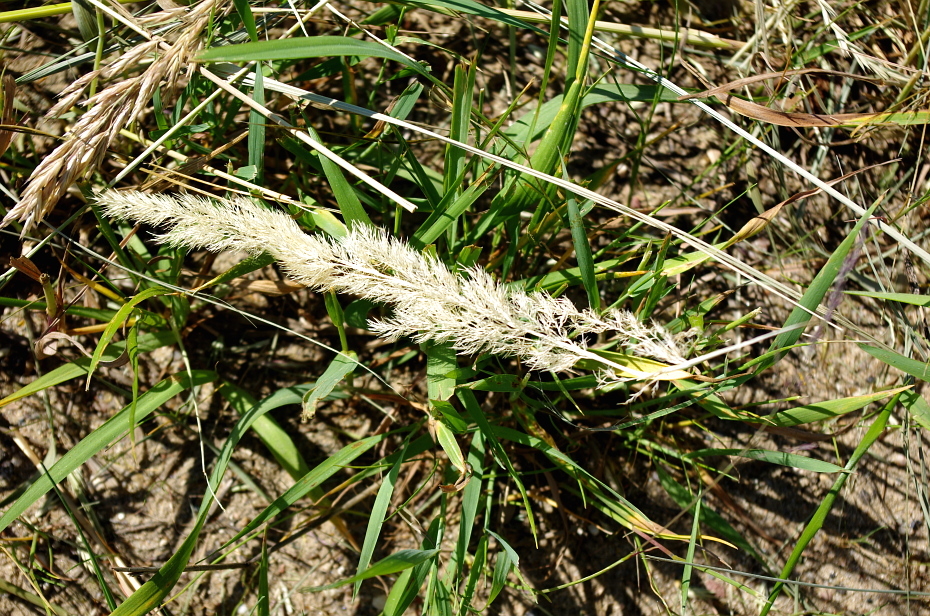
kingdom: Plantae
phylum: Tracheophyta
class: Liliopsida
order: Poales
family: Poaceae
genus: Calamagrostis
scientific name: Calamagrostis epigejos
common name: Wood small-reed
